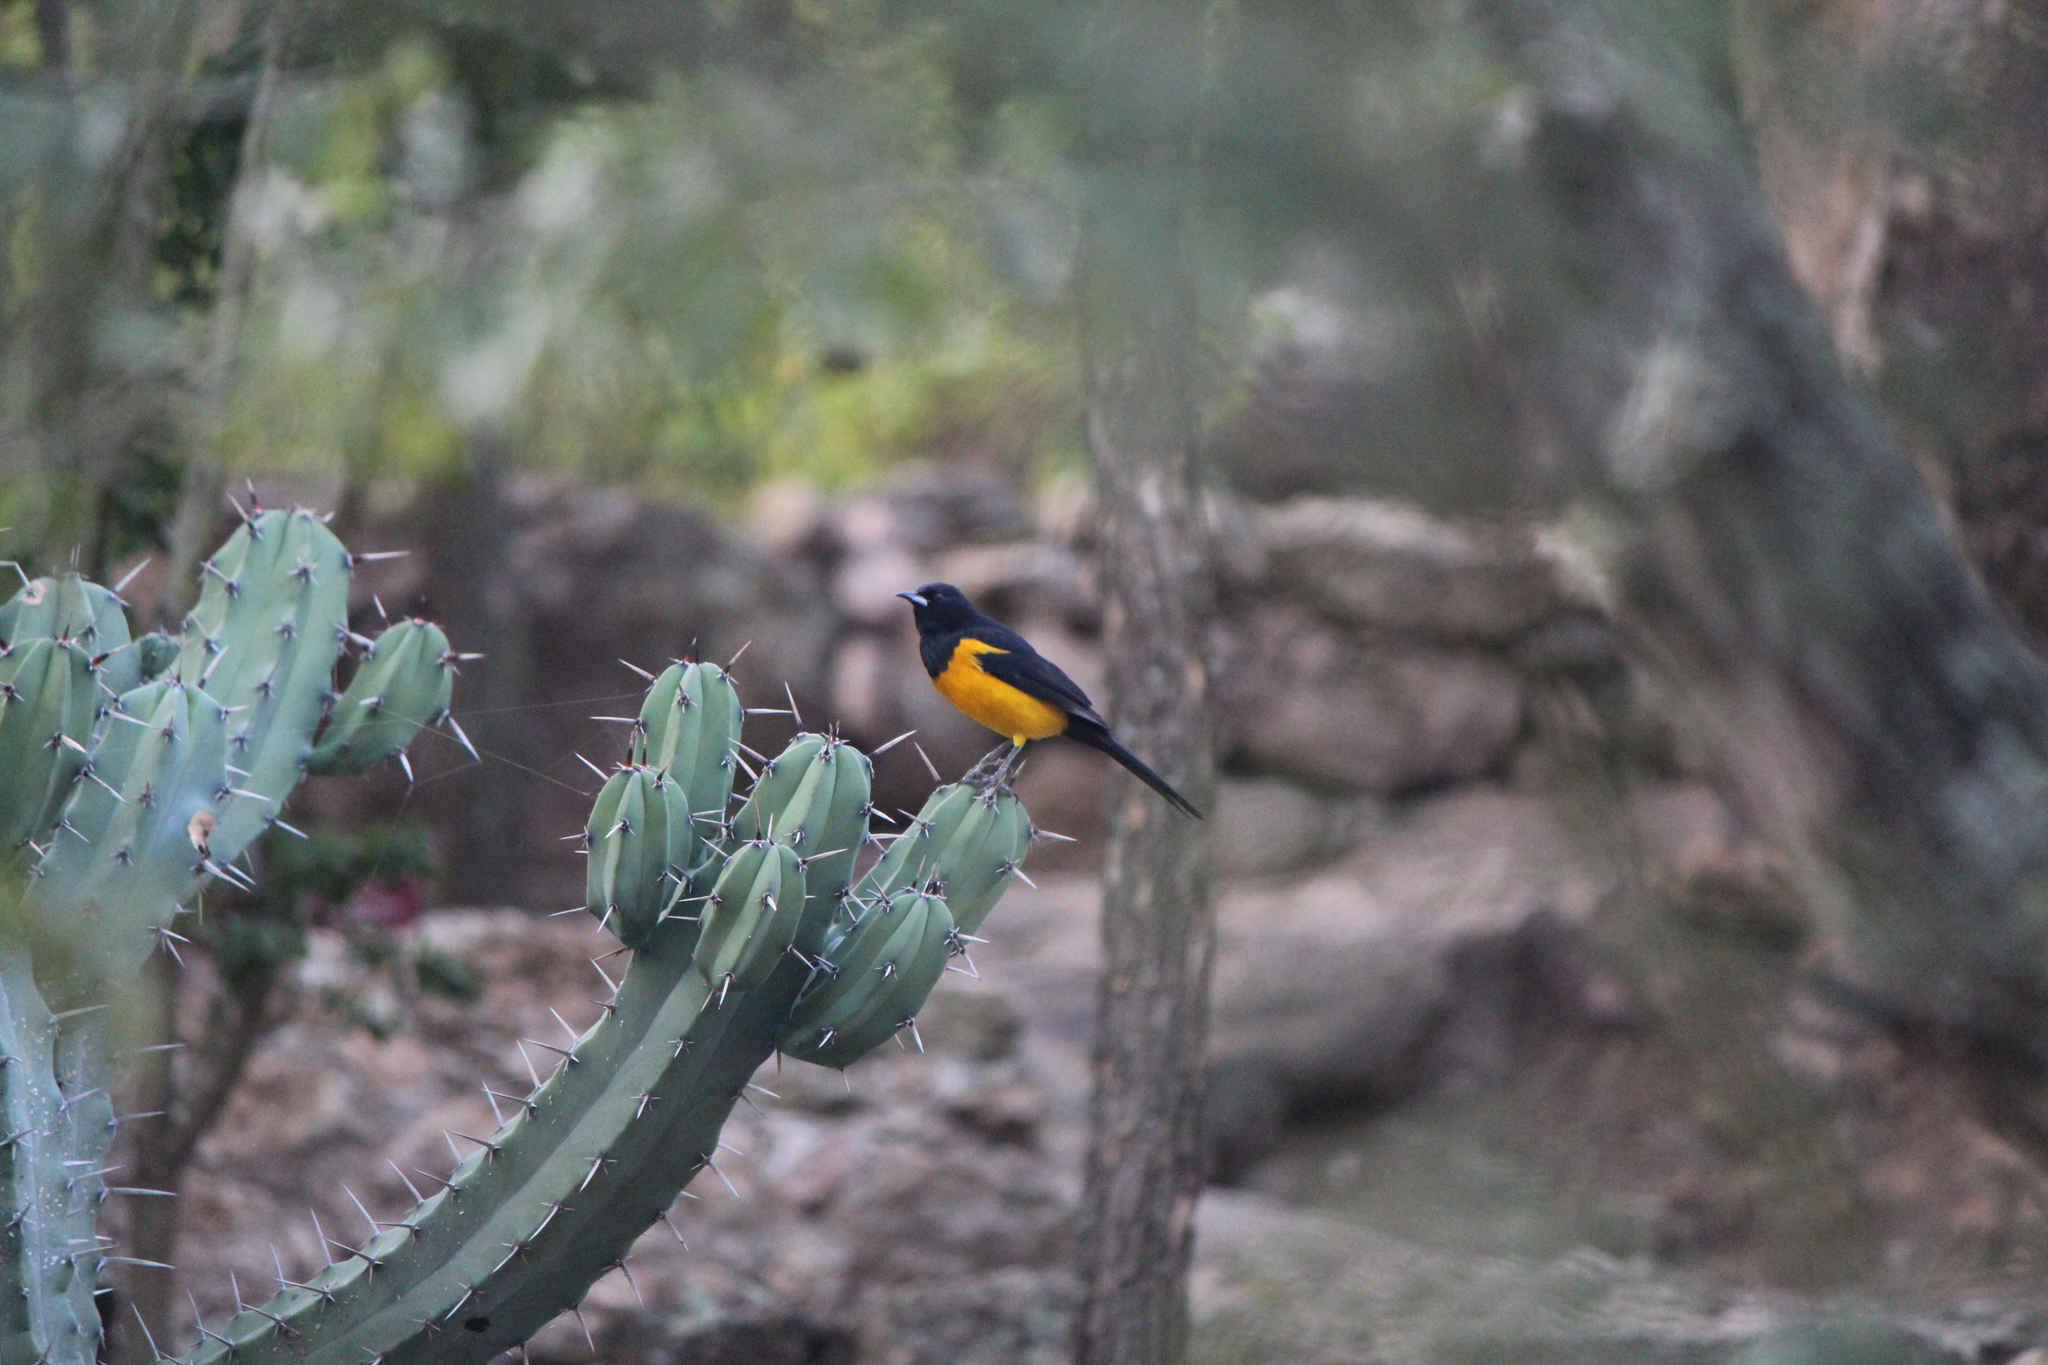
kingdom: Animalia
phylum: Chordata
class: Aves
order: Passeriformes
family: Icteridae
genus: Icterus
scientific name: Icterus wagleri
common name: Black-vented oriole
